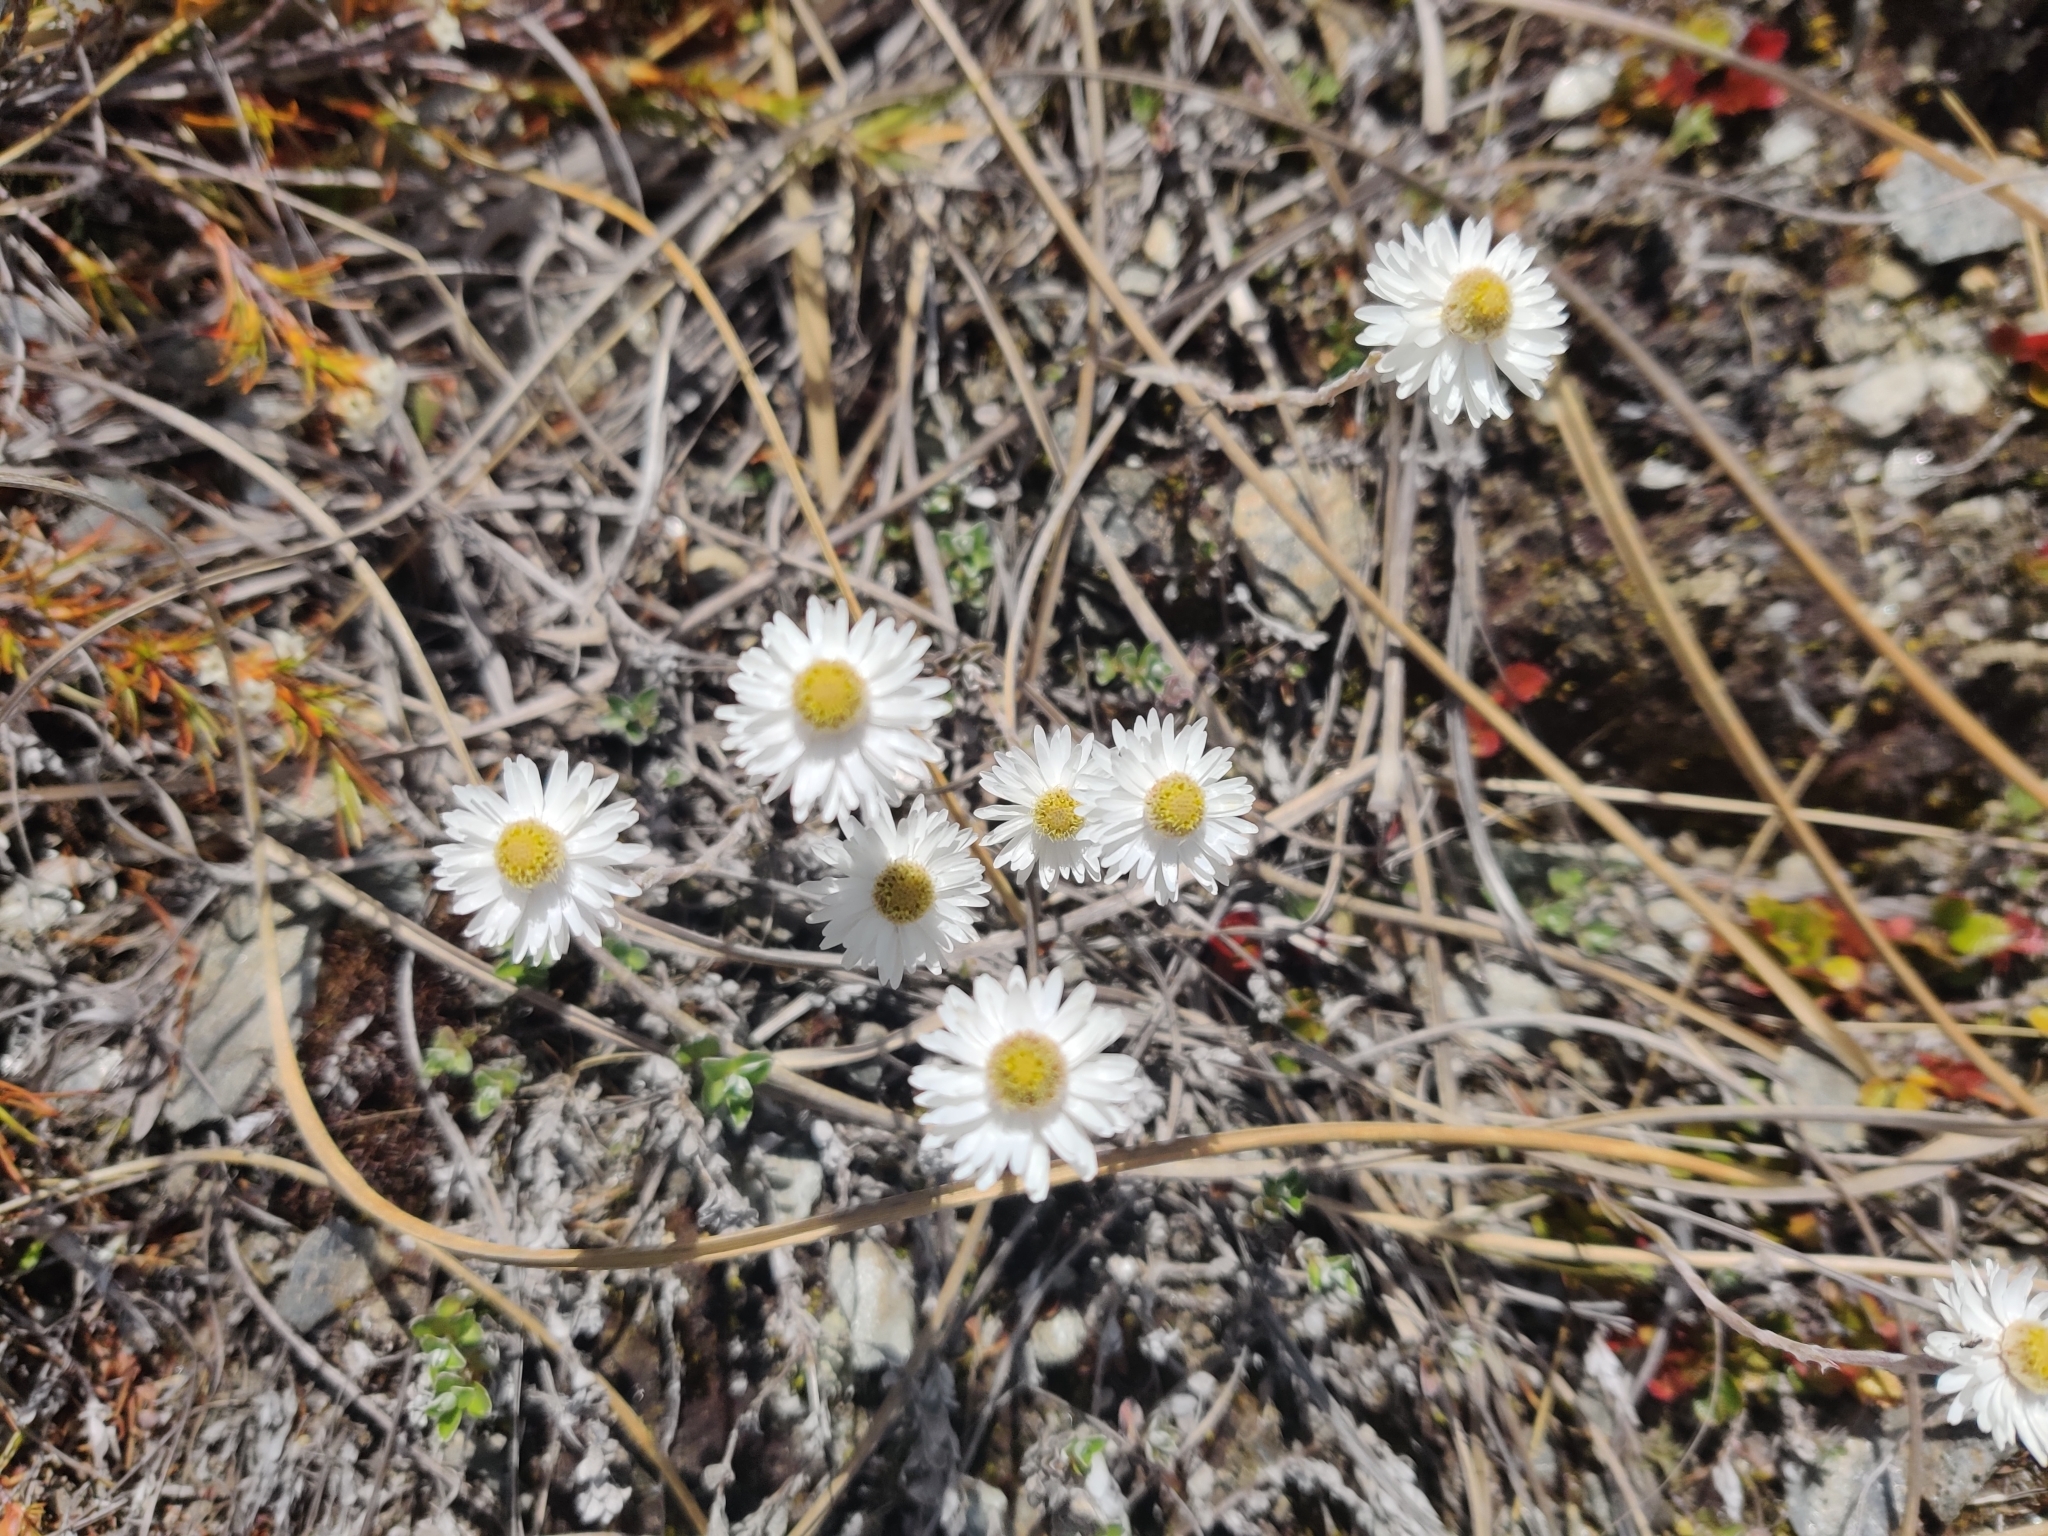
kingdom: Plantae
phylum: Tracheophyta
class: Magnoliopsida
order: Asterales
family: Asteraceae
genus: Anaphalioides
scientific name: Anaphalioides bellidioides
